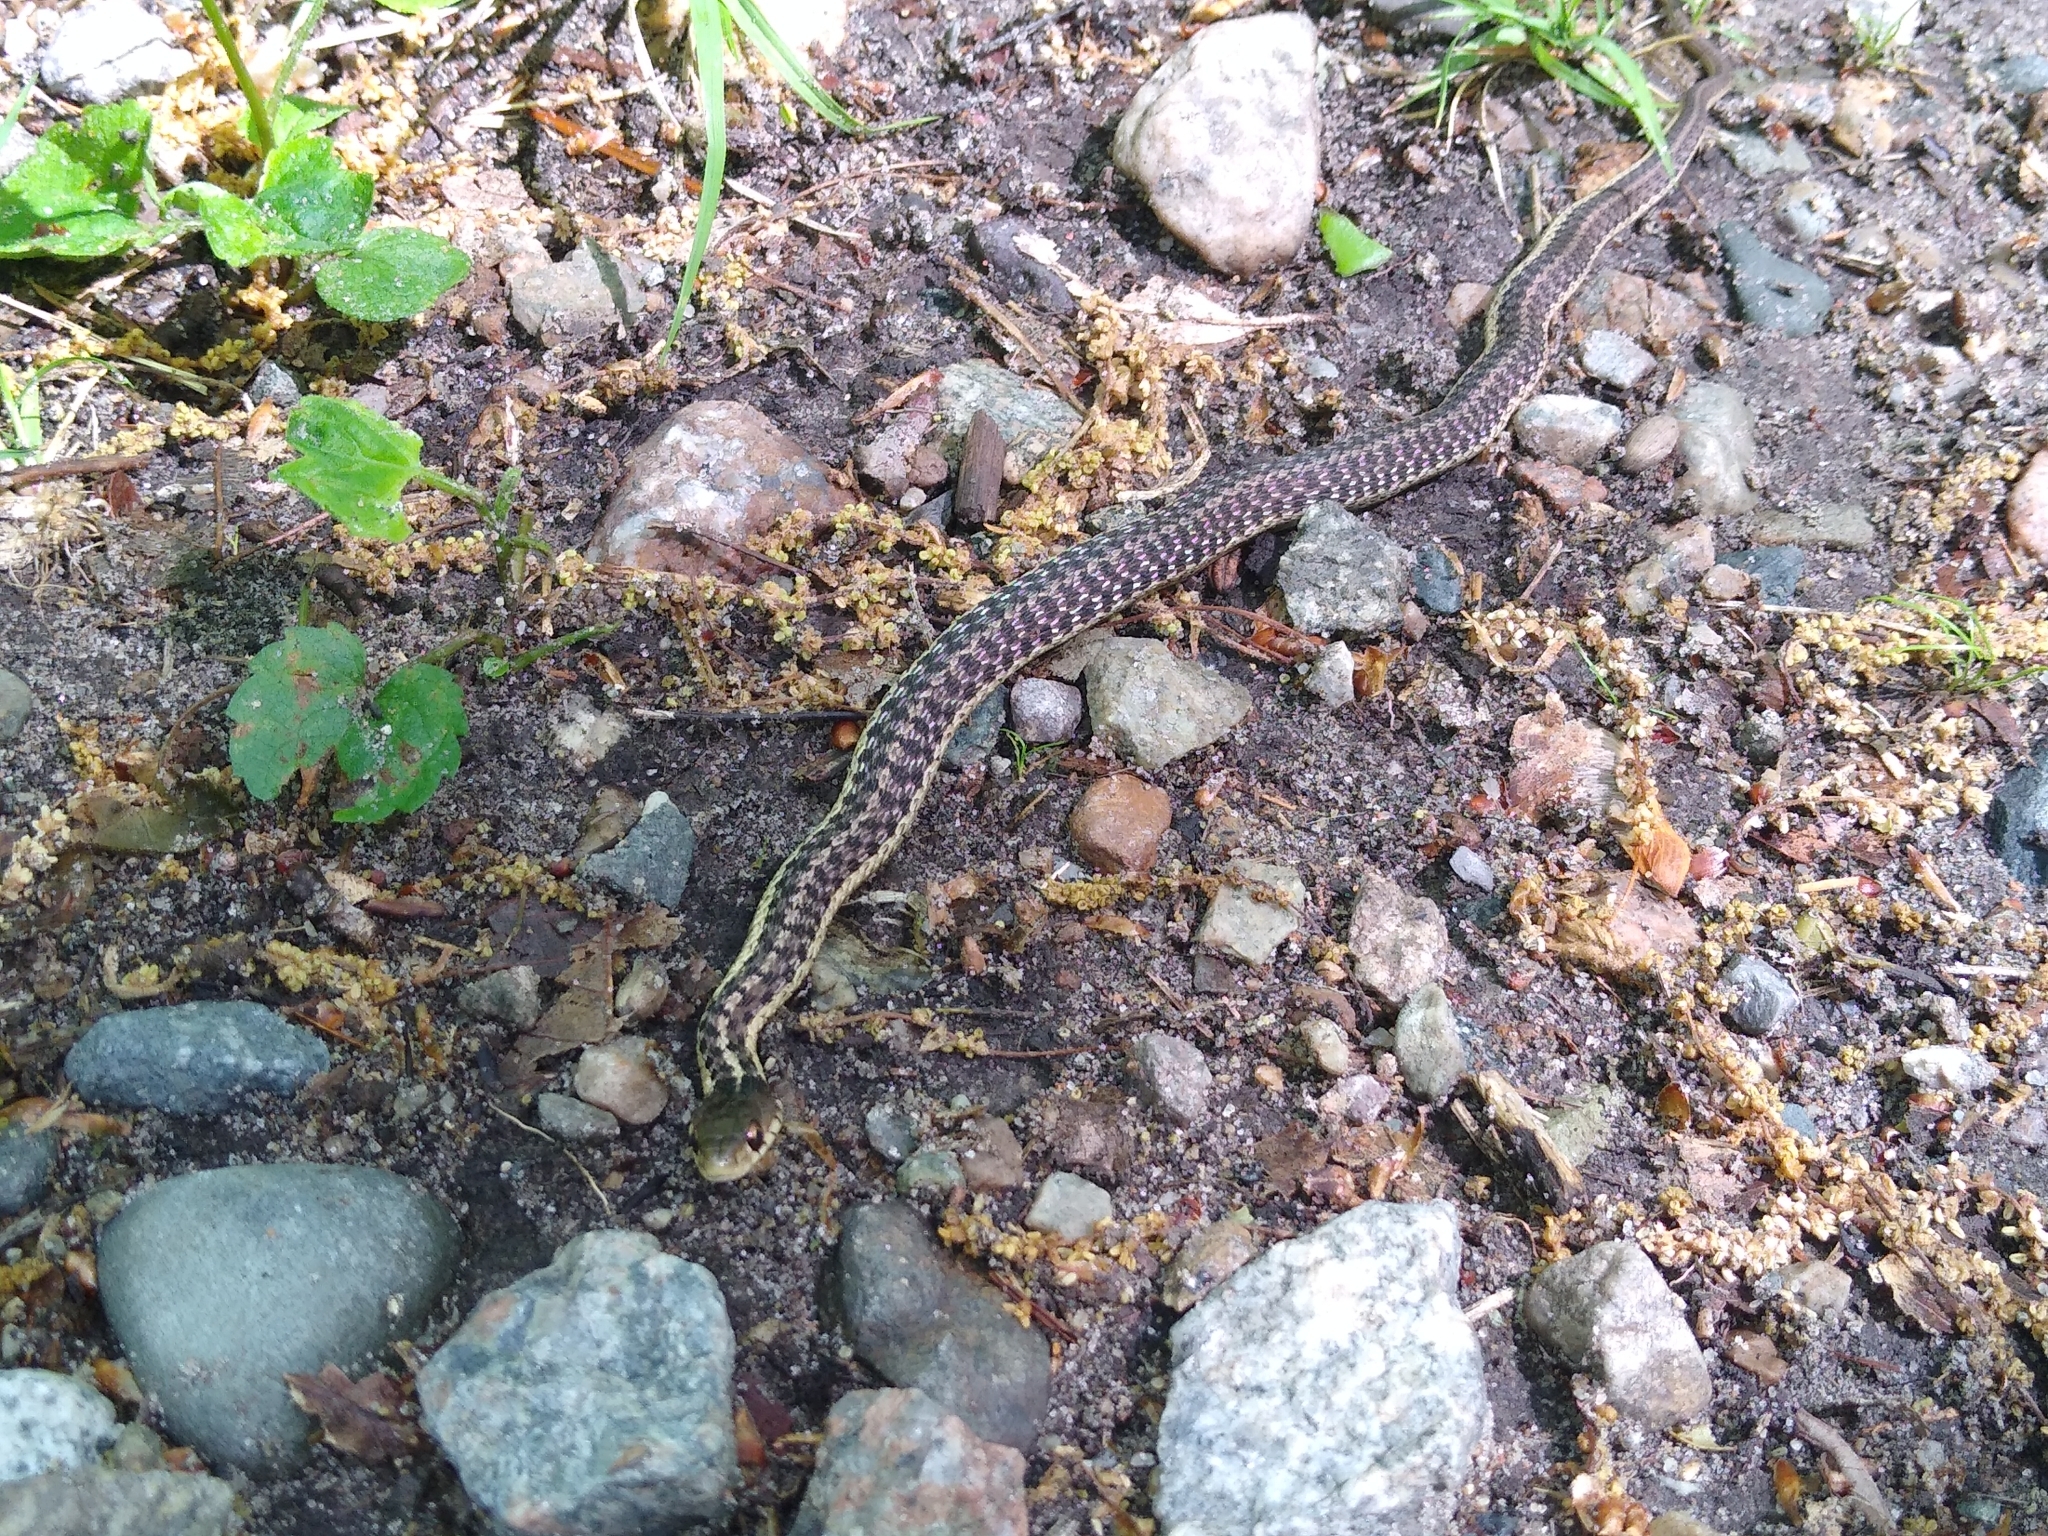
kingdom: Animalia
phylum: Chordata
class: Squamata
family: Colubridae
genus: Thamnophis
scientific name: Thamnophis sirtalis
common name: Common garter snake
